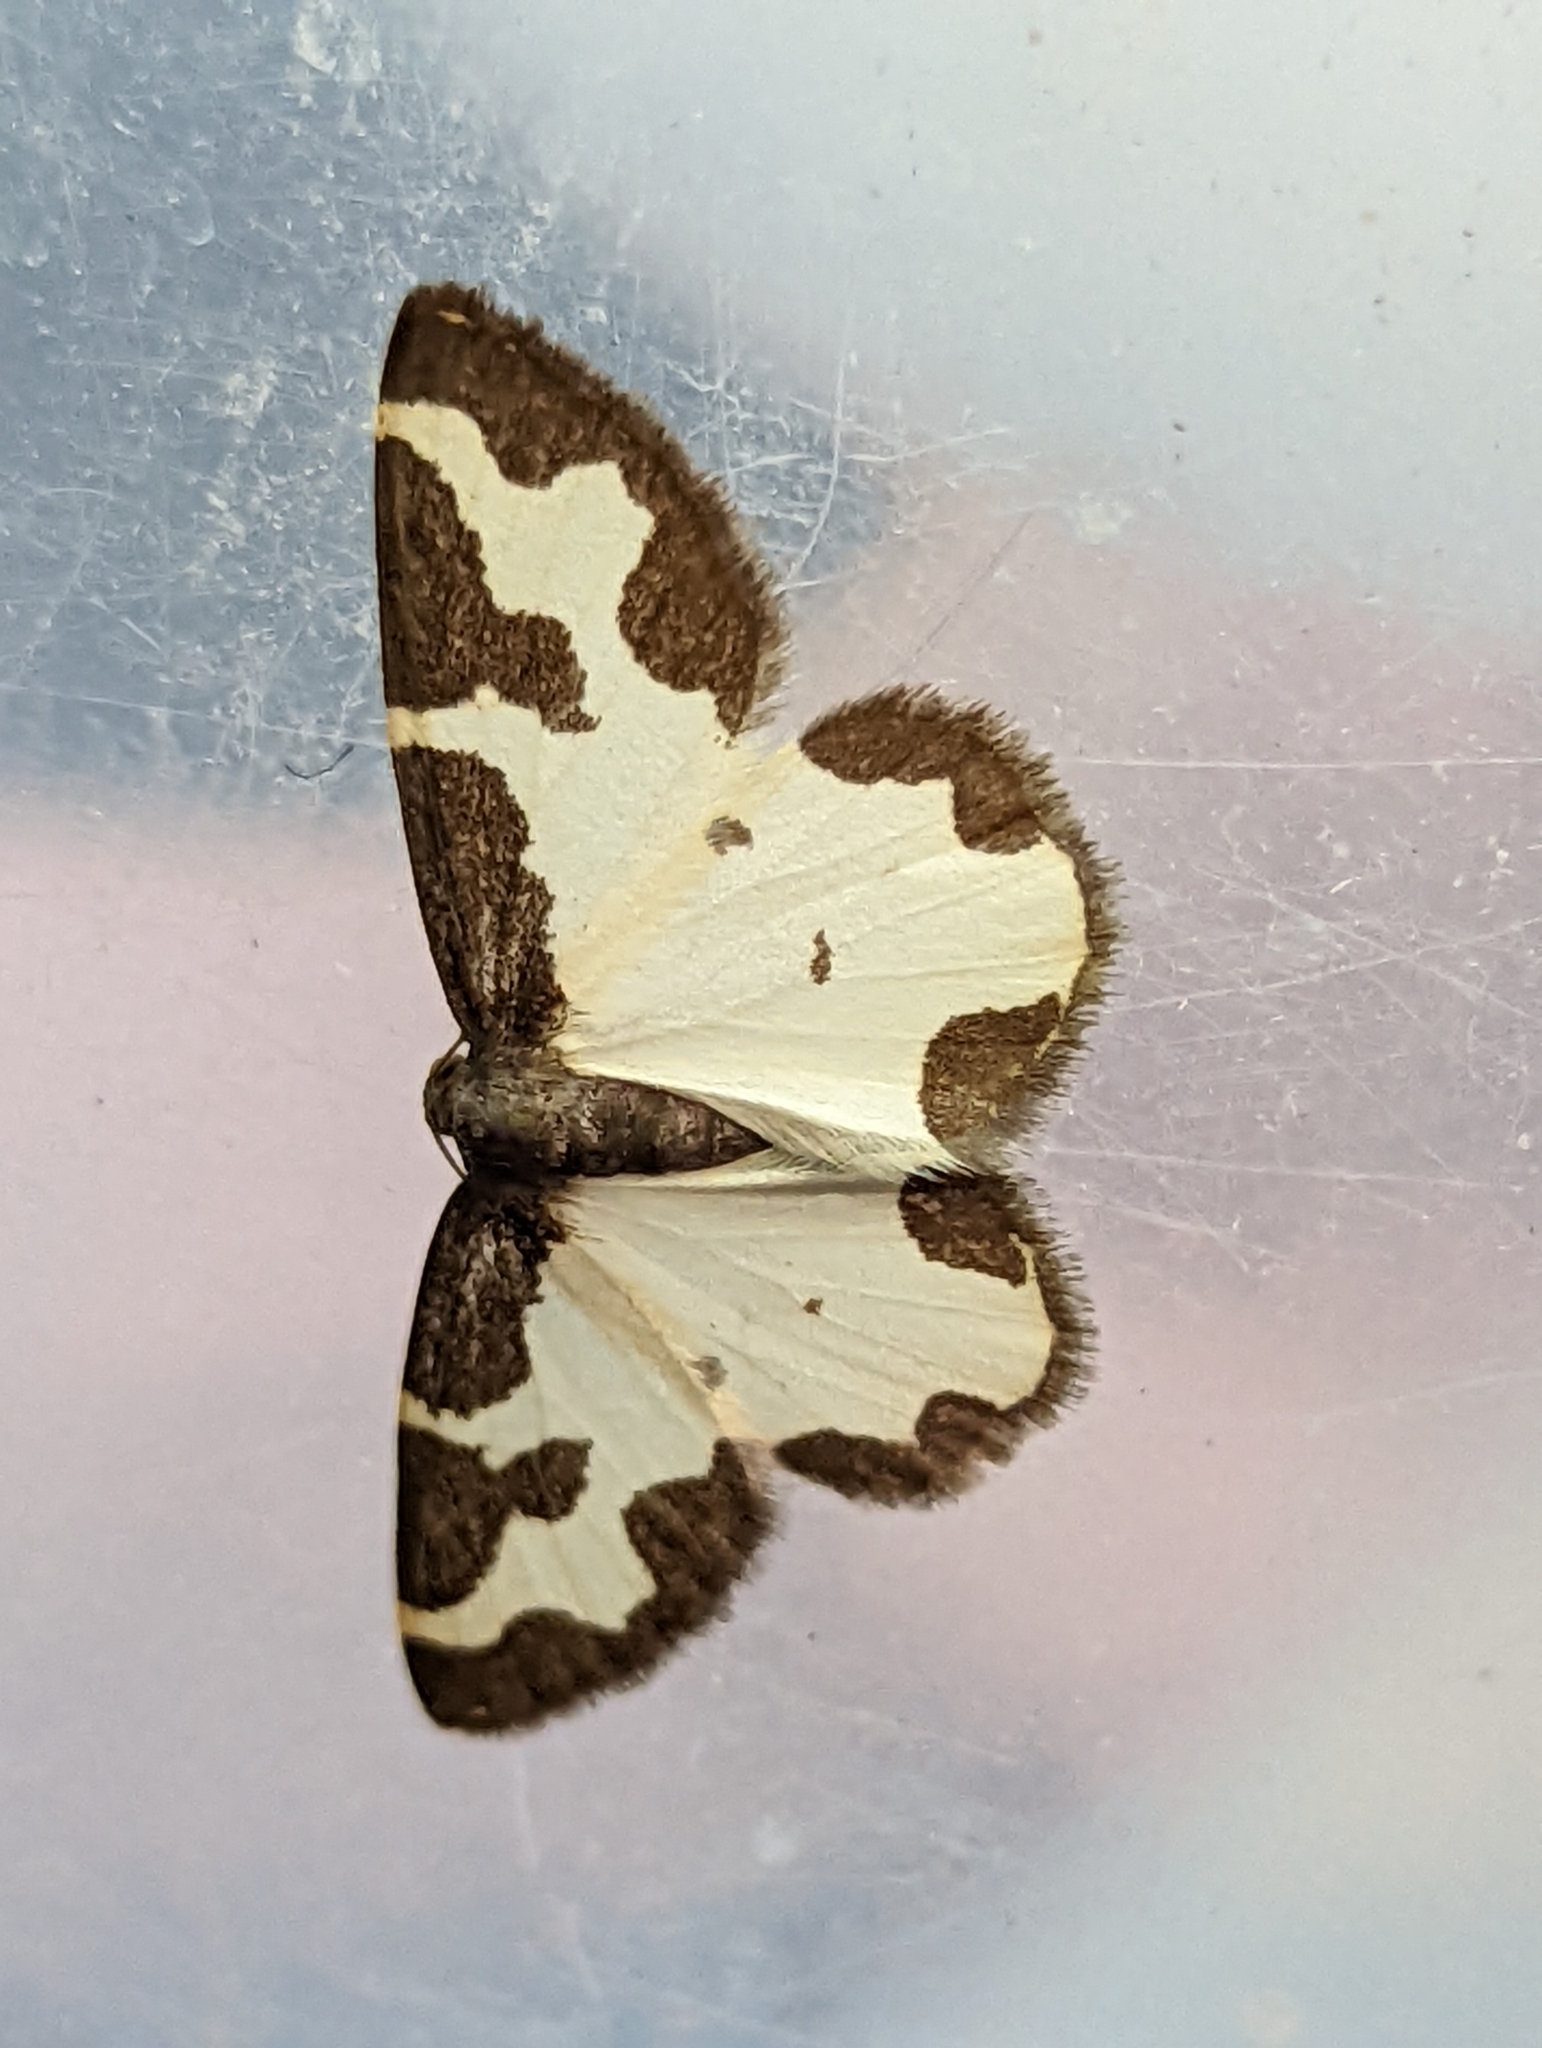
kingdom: Animalia
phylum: Arthropoda
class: Insecta
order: Lepidoptera
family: Geometridae
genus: Lomaspilis
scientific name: Lomaspilis marginata
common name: Clouded border
